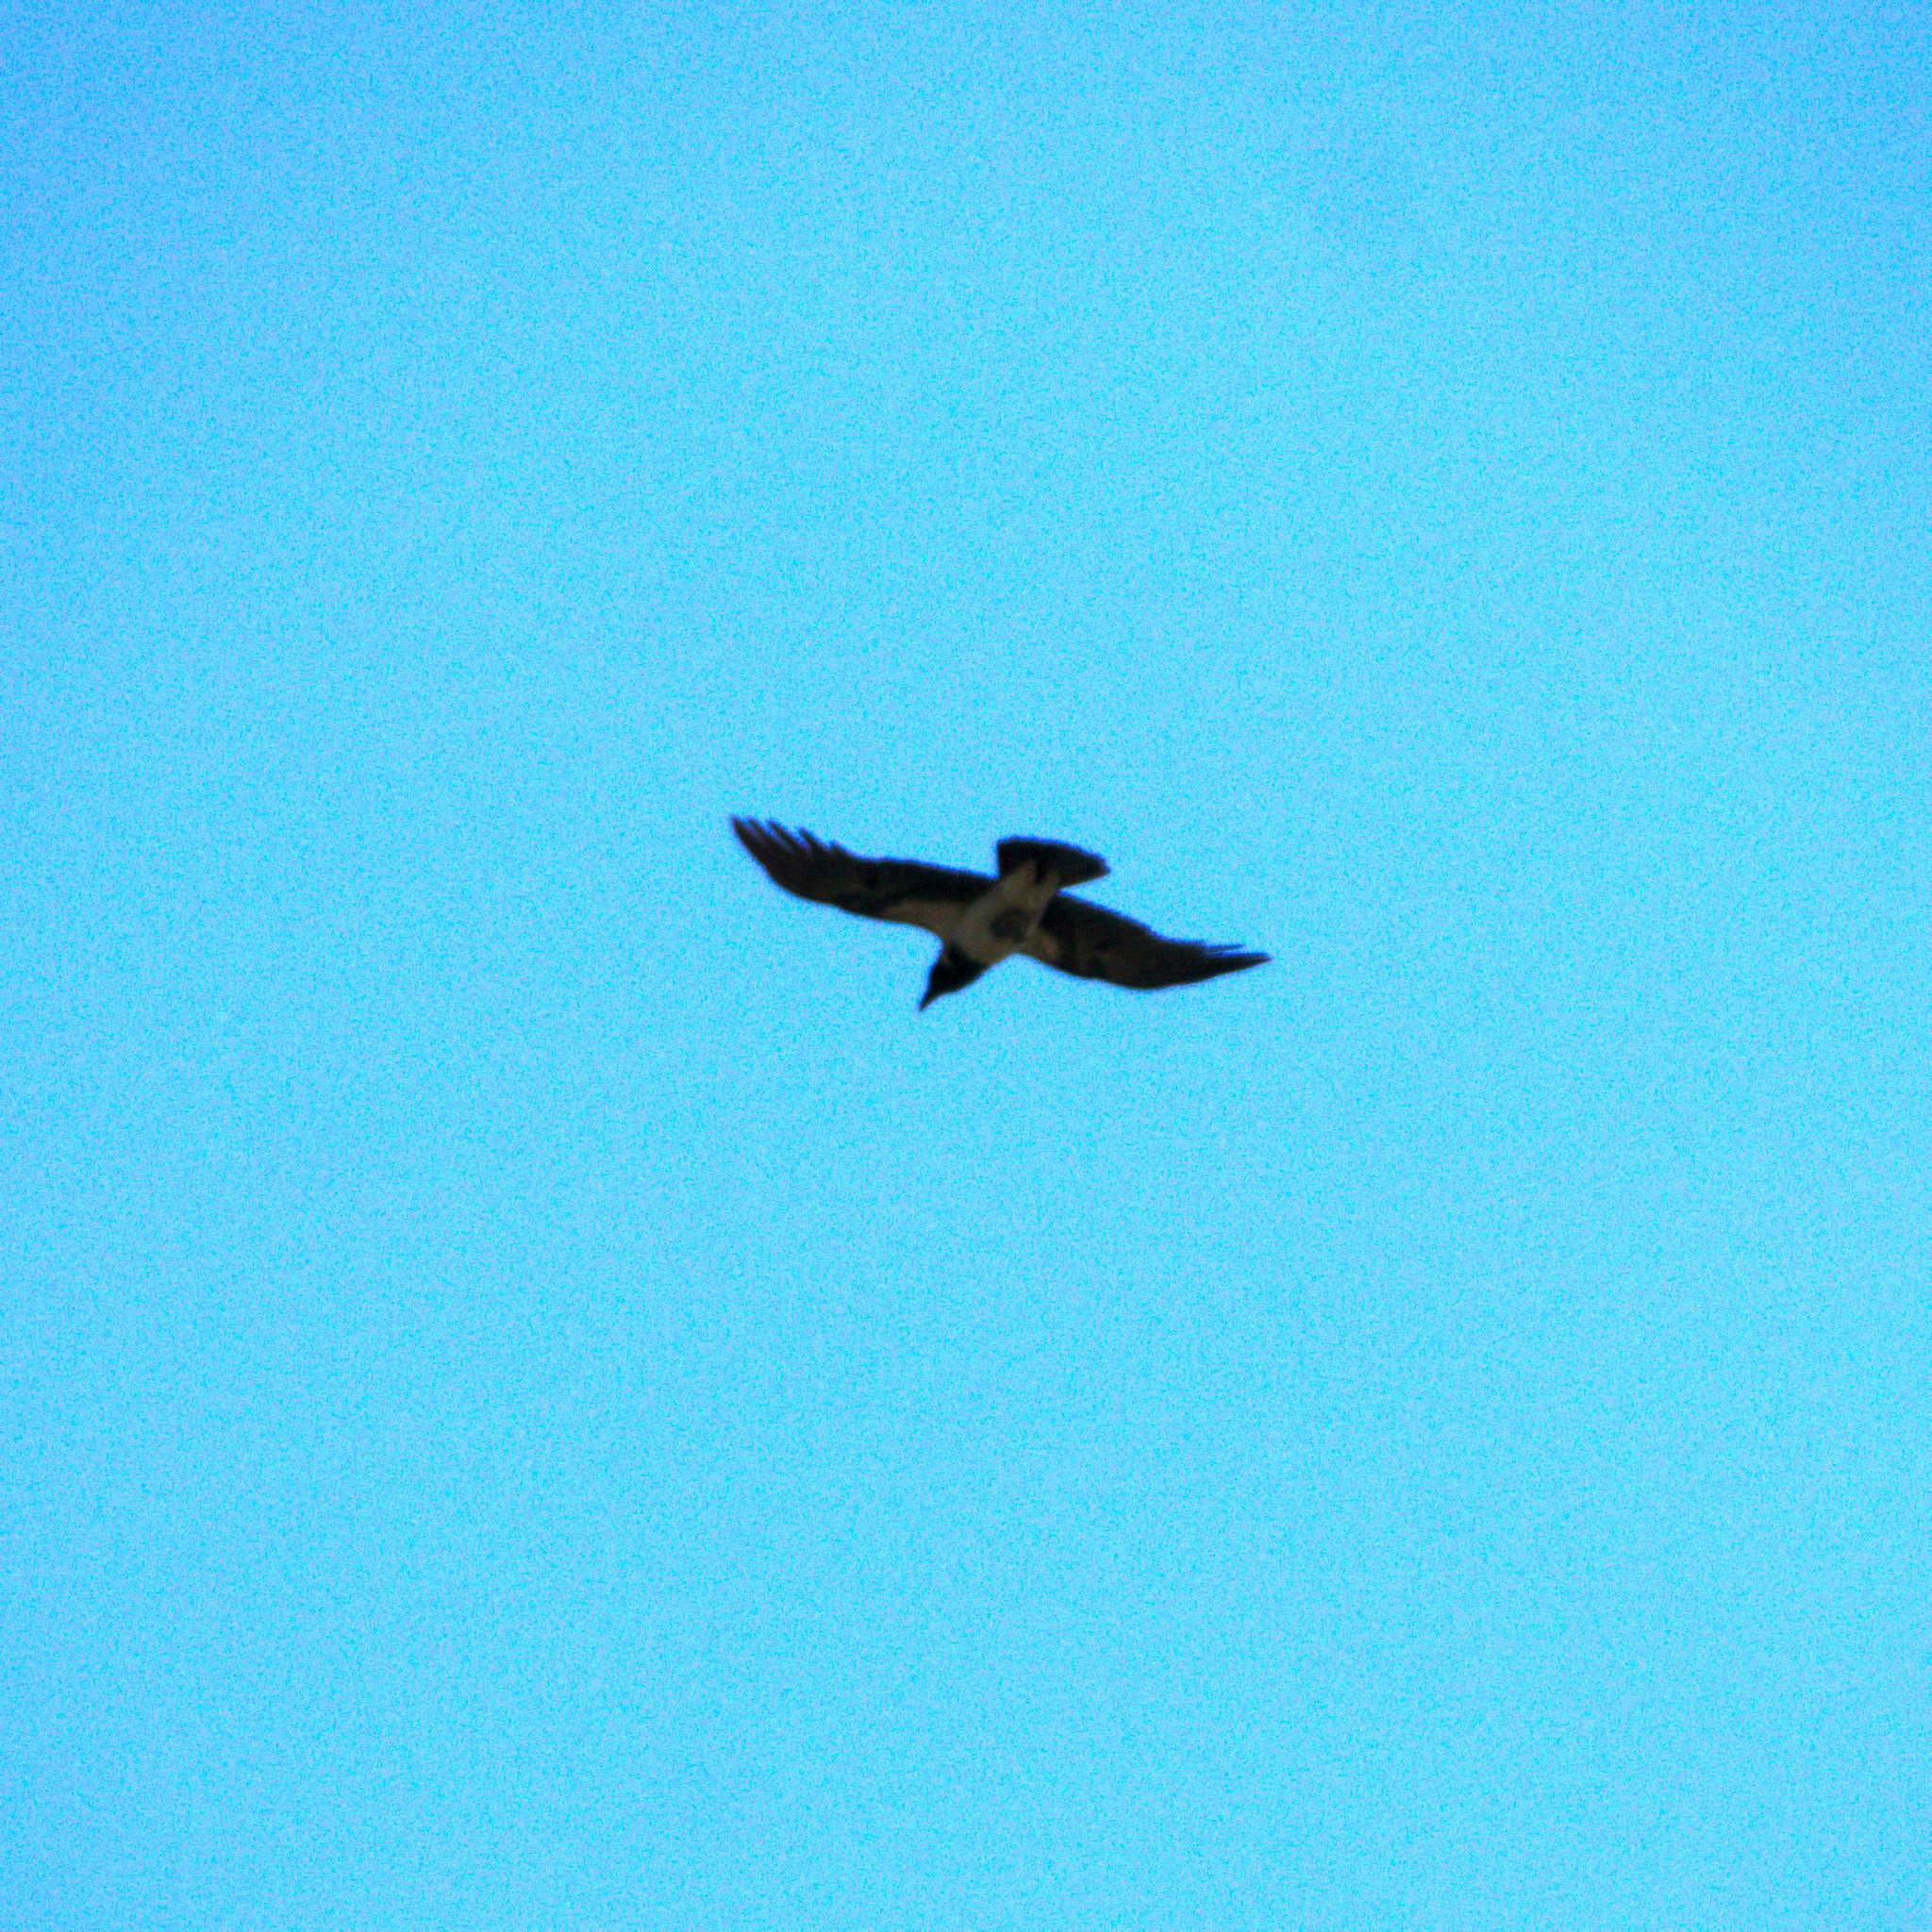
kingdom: Animalia
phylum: Chordata
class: Aves
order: Passeriformes
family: Corvidae
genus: Corvus
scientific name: Corvus cornix
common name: Hooded crow
